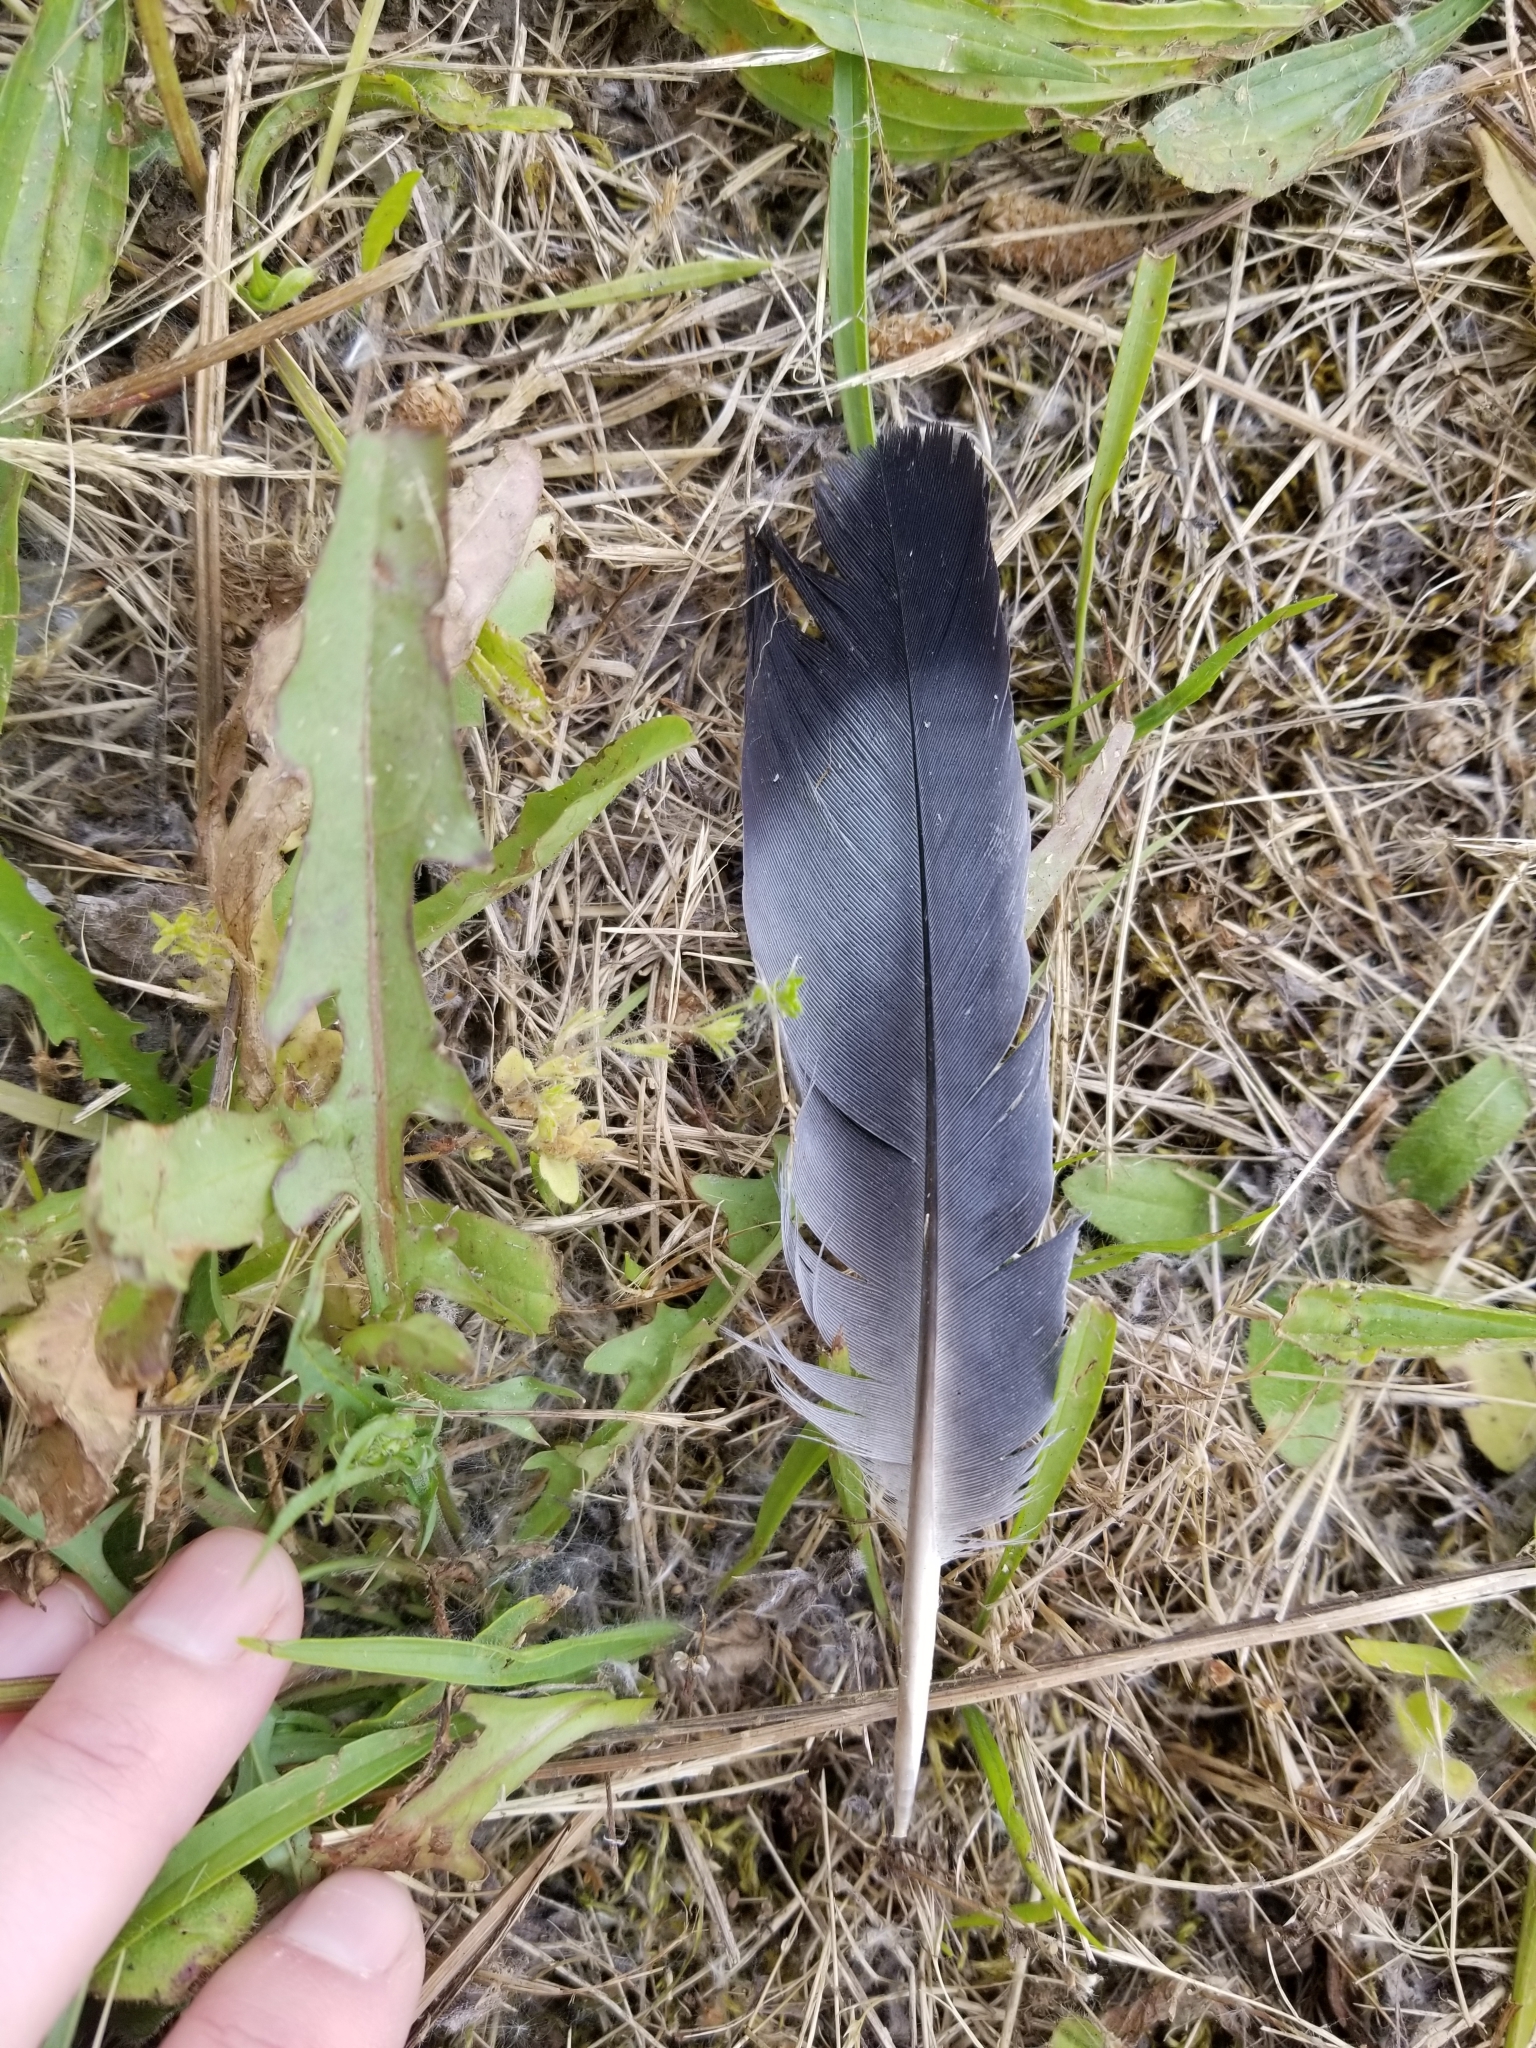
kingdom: Animalia
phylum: Chordata
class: Aves
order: Columbiformes
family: Columbidae
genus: Columba
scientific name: Columba livia
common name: Rock pigeon
